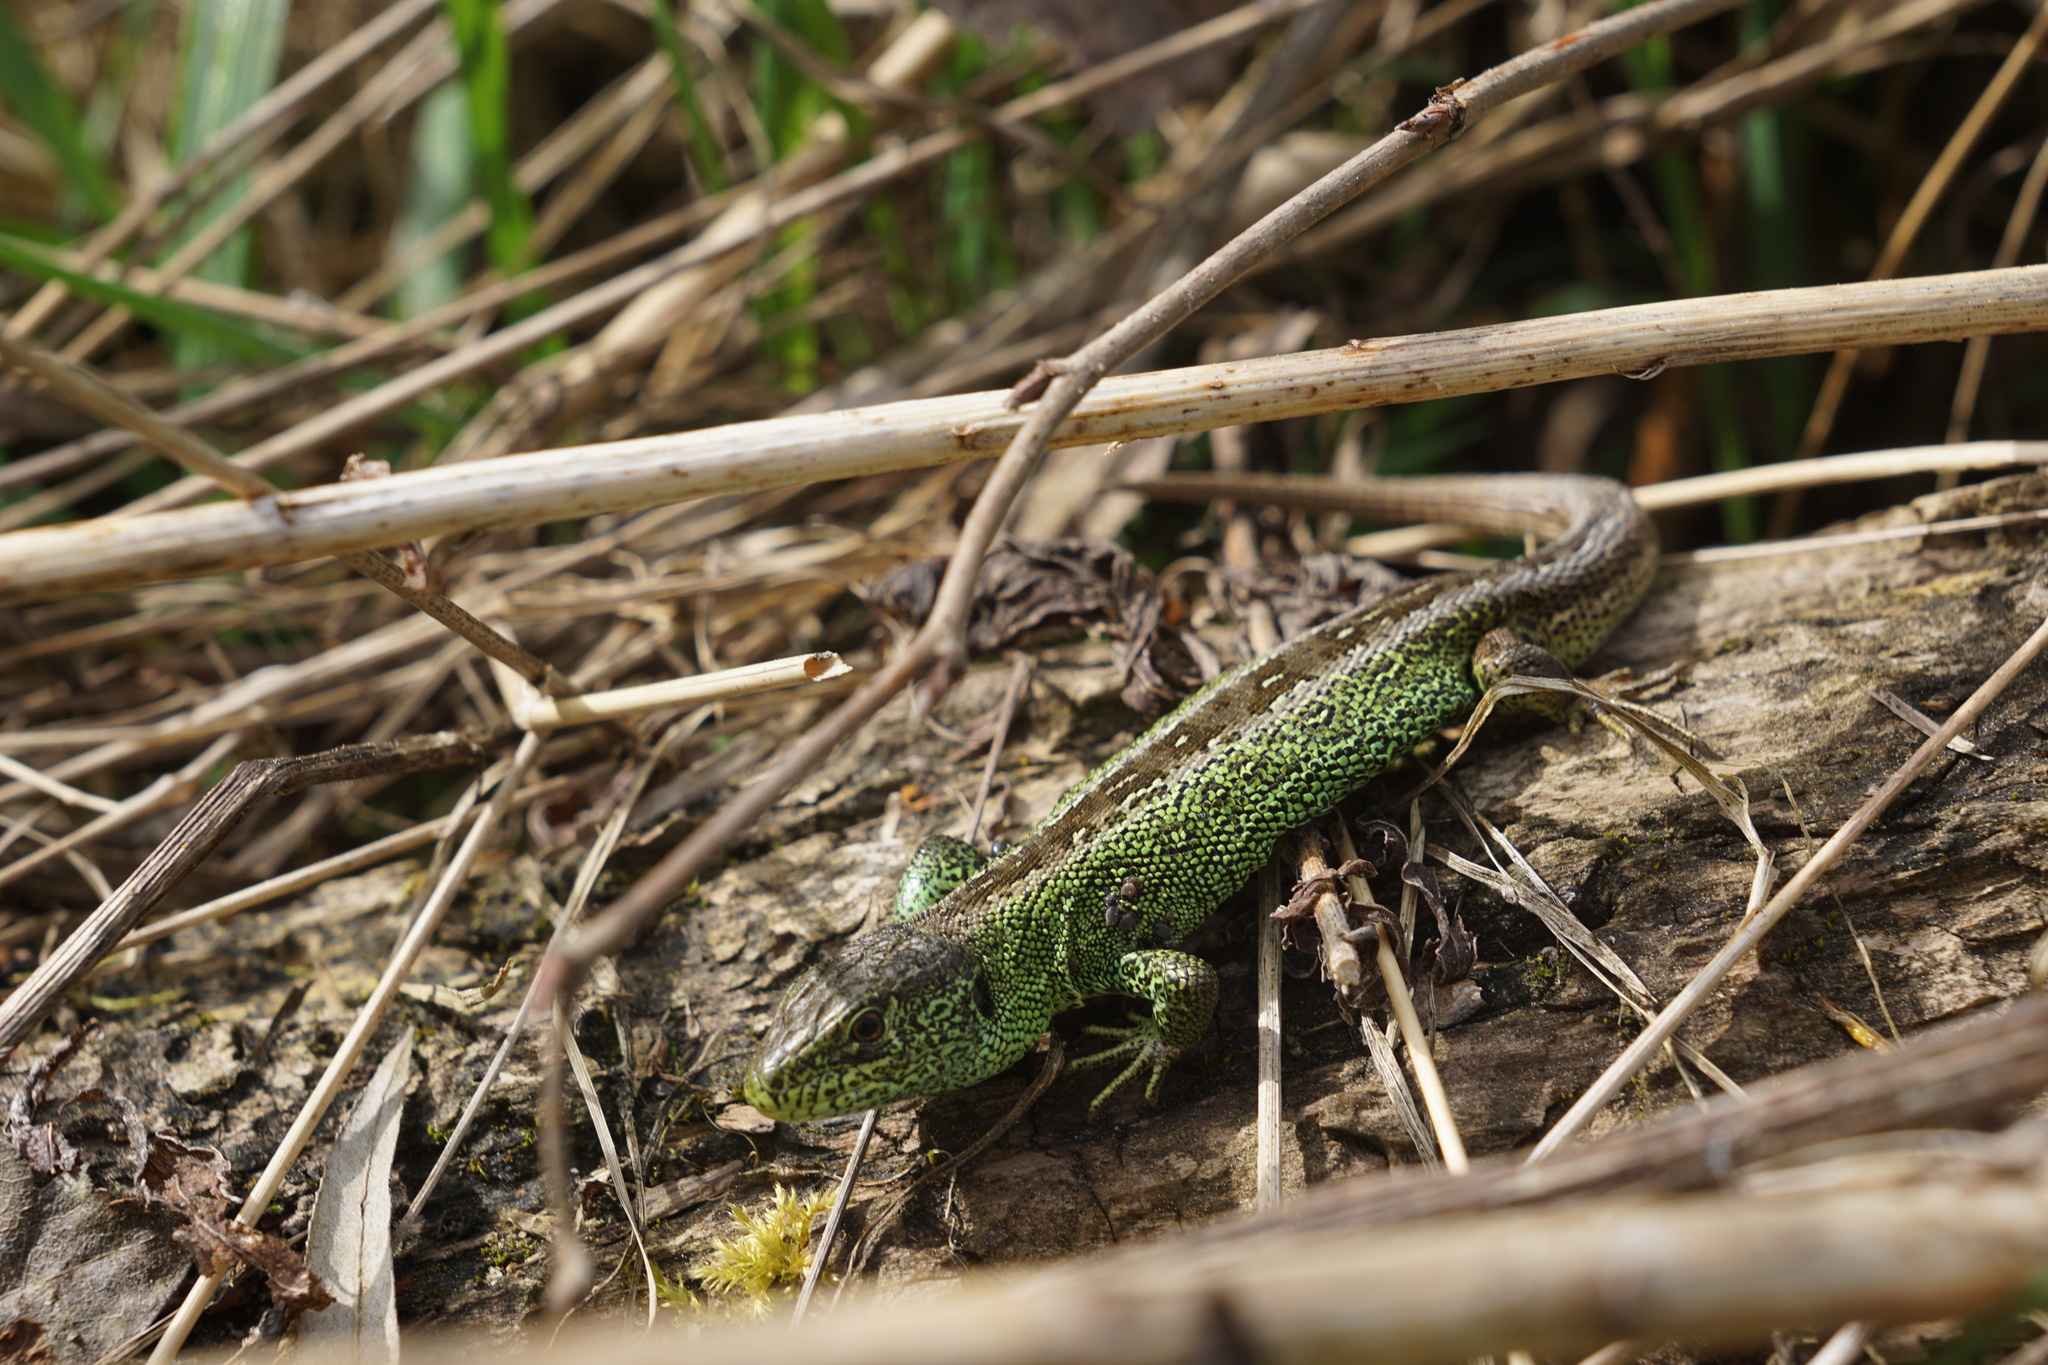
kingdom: Animalia
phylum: Chordata
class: Squamata
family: Lacertidae
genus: Lacerta
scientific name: Lacerta agilis
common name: Sand lizard
